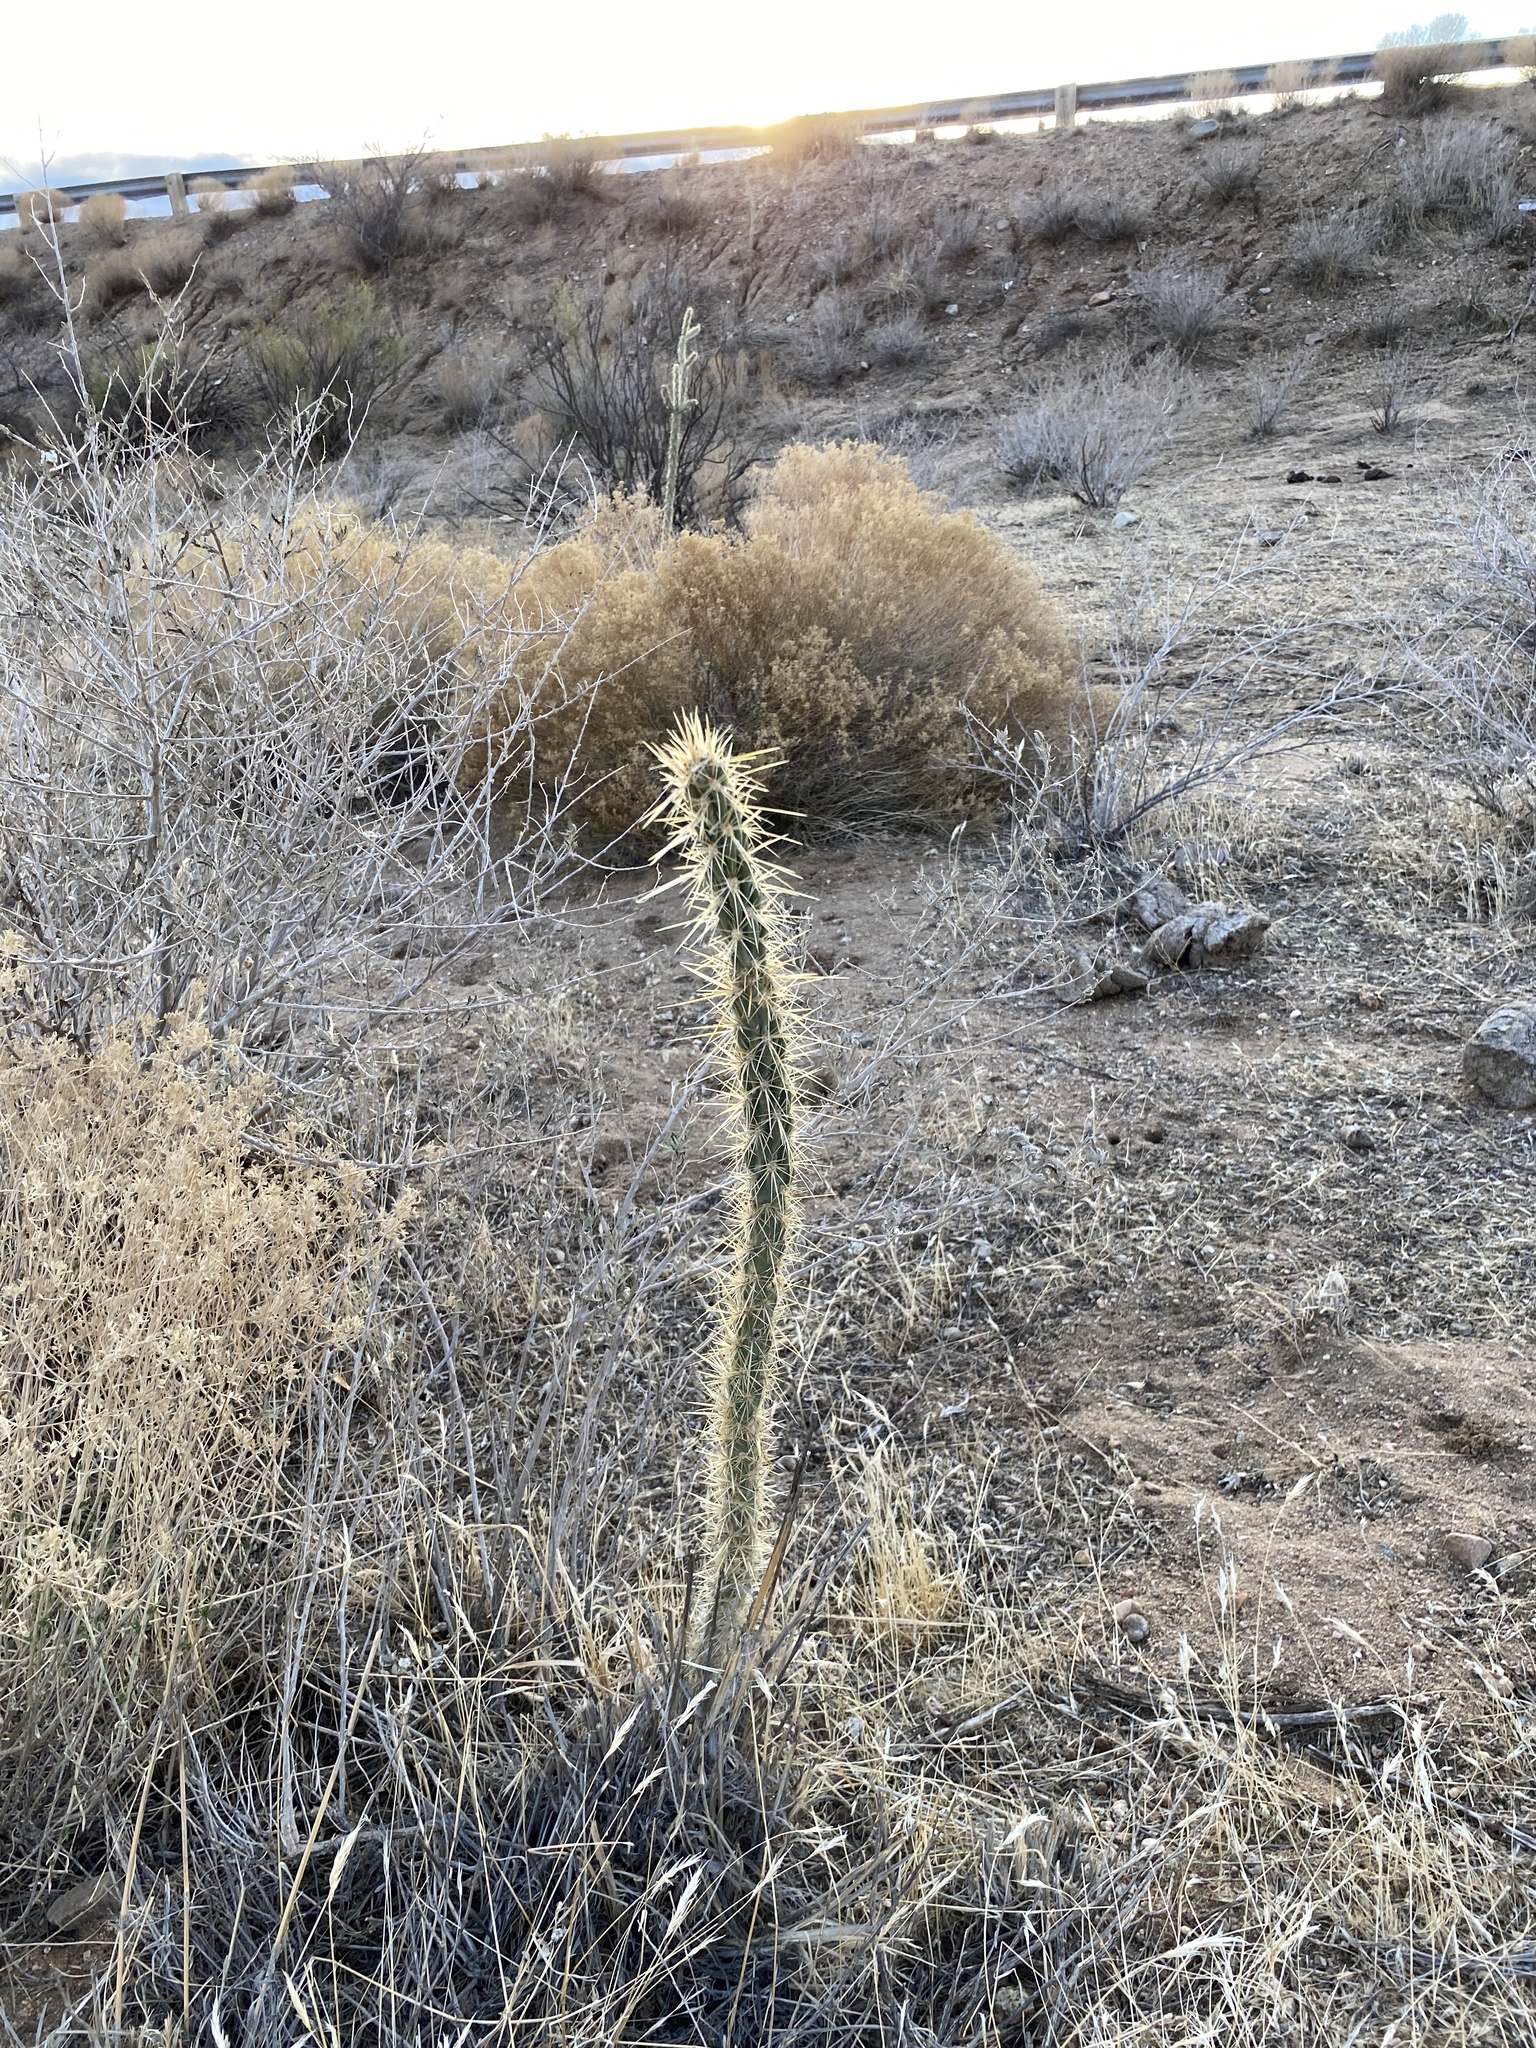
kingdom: Plantae
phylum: Tracheophyta
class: Magnoliopsida
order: Caryophyllales
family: Cactaceae
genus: Cylindropuntia
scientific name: Cylindropuntia acanthocarpa
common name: Buckhorn cholla
